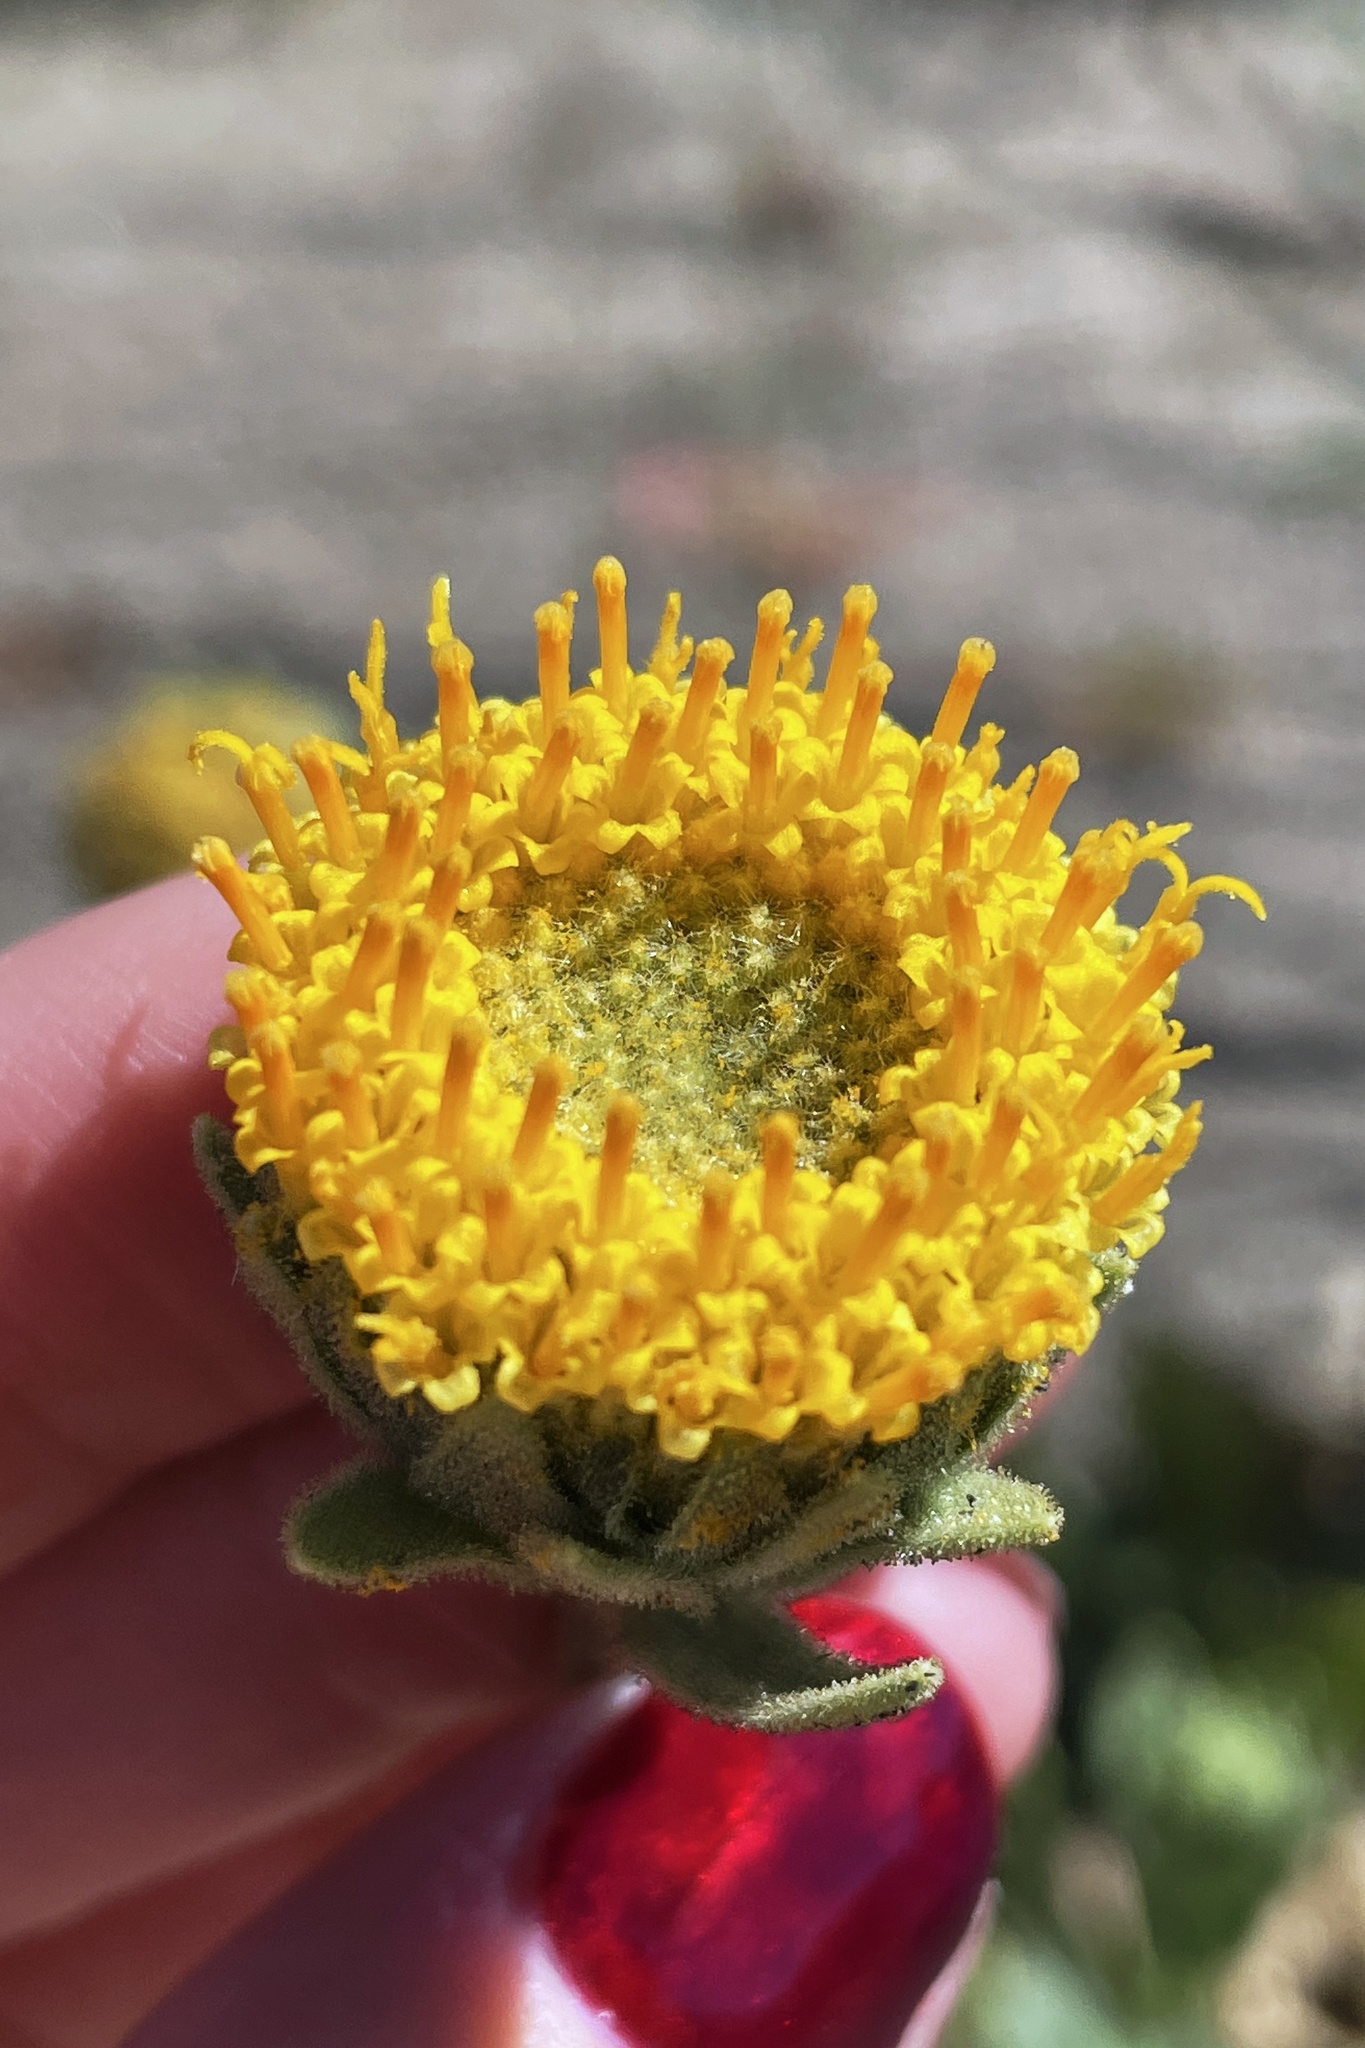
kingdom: Plantae
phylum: Tracheophyta
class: Magnoliopsida
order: Asterales
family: Asteraceae
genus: Geraea
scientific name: Geraea viscida
